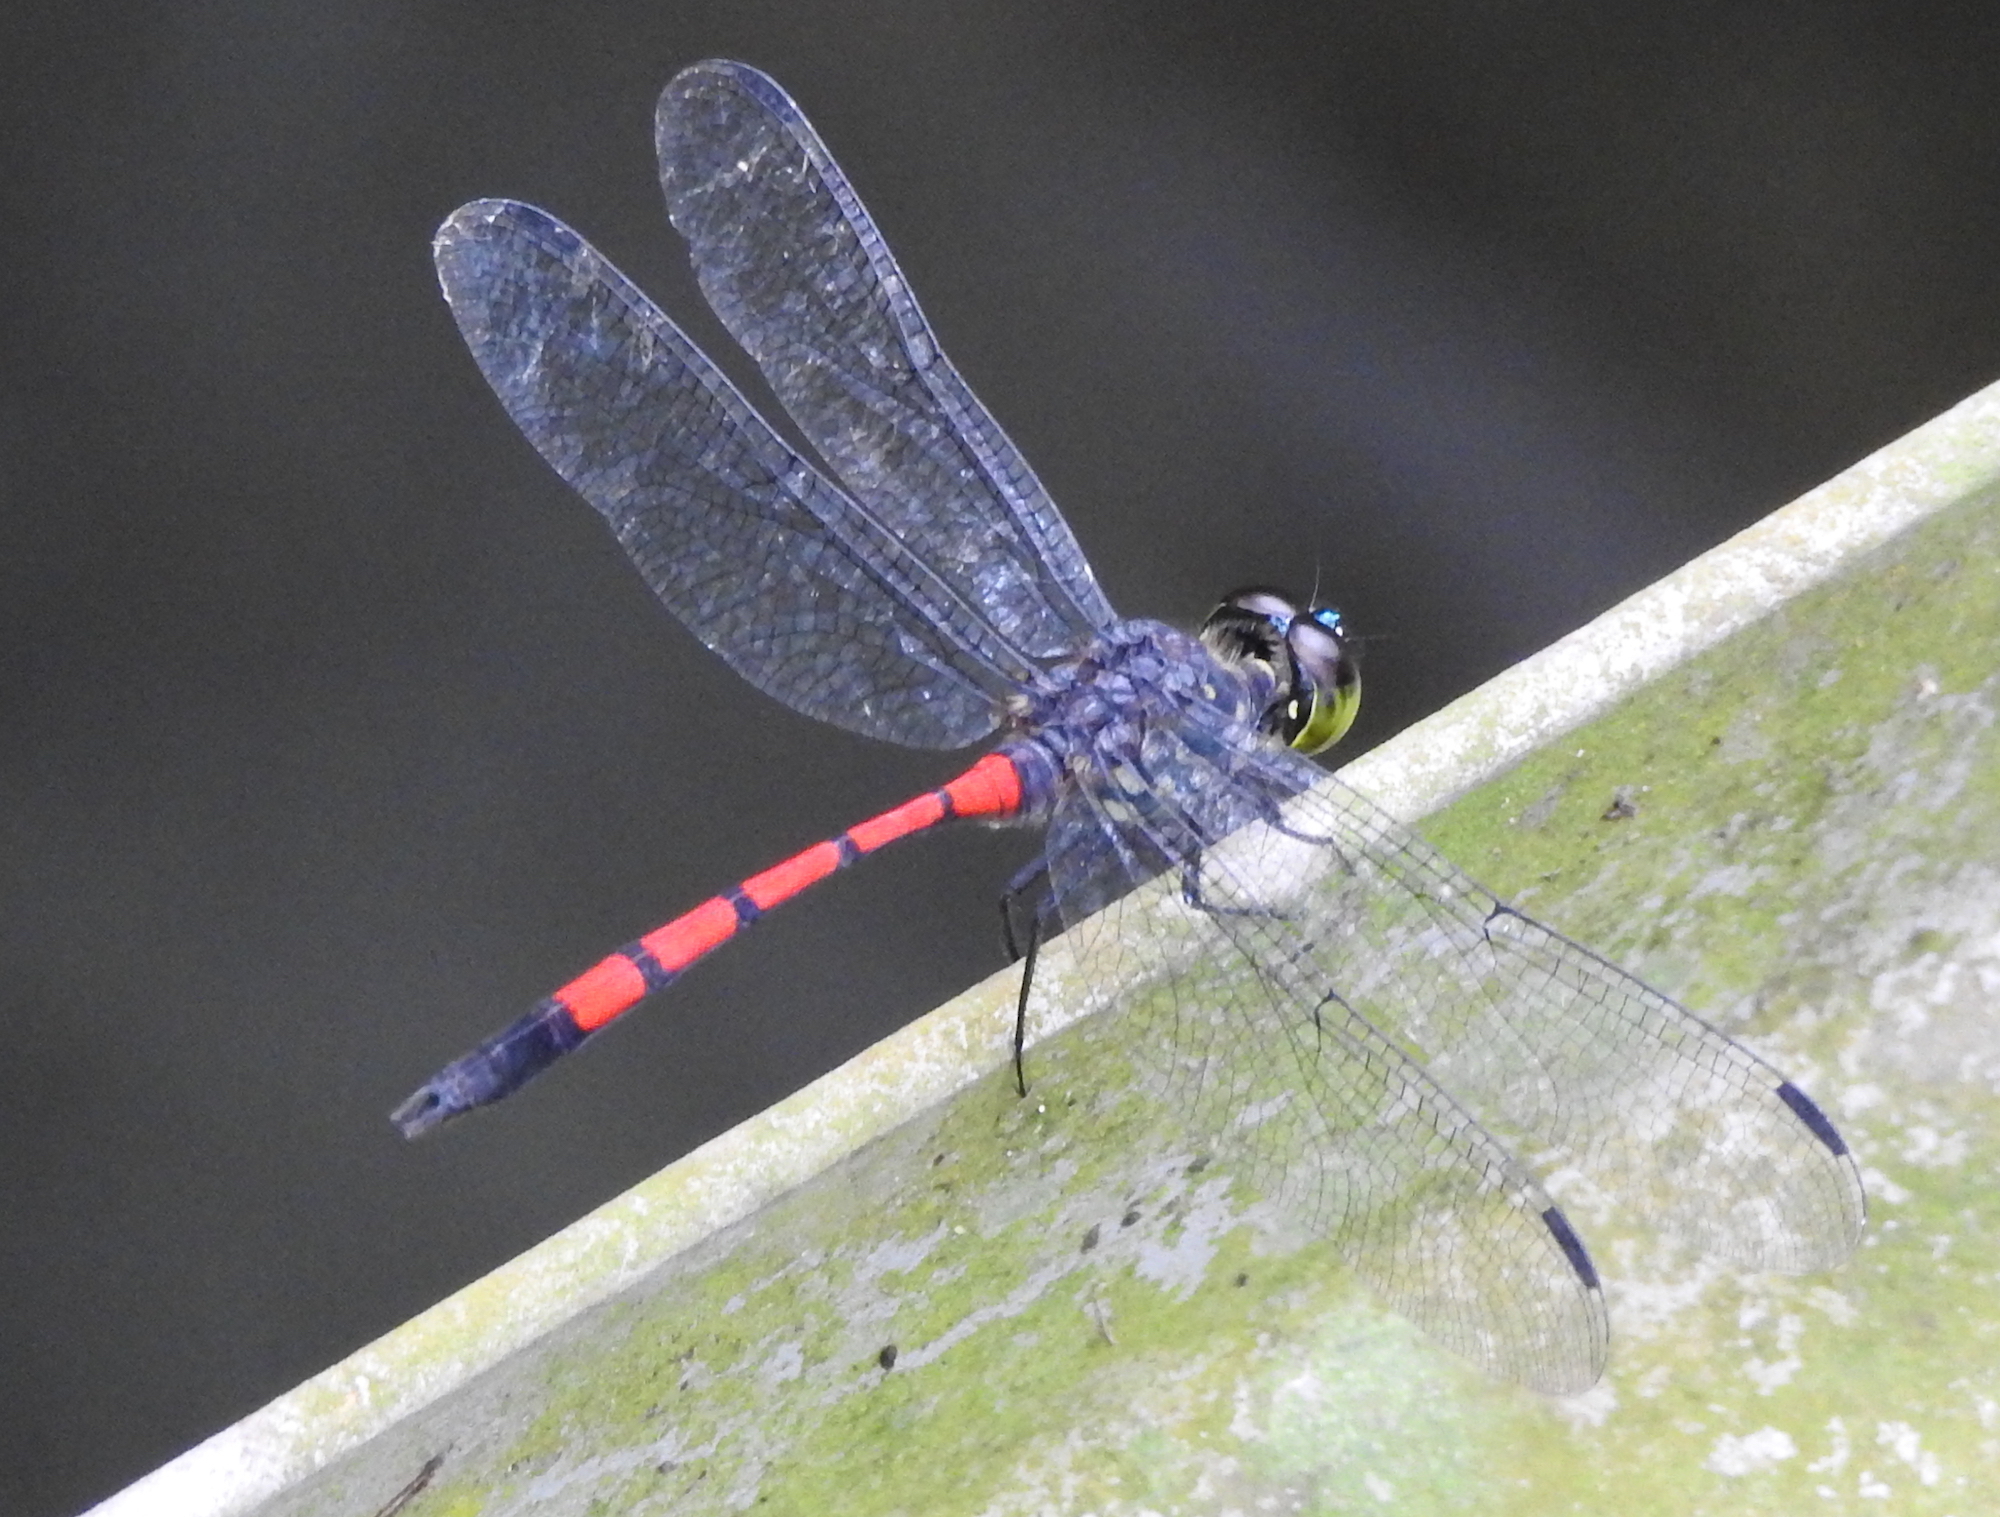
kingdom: Animalia
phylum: Arthropoda
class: Insecta
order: Odonata
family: Libellulidae
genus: Agrionoptera
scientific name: Agrionoptera insignis
